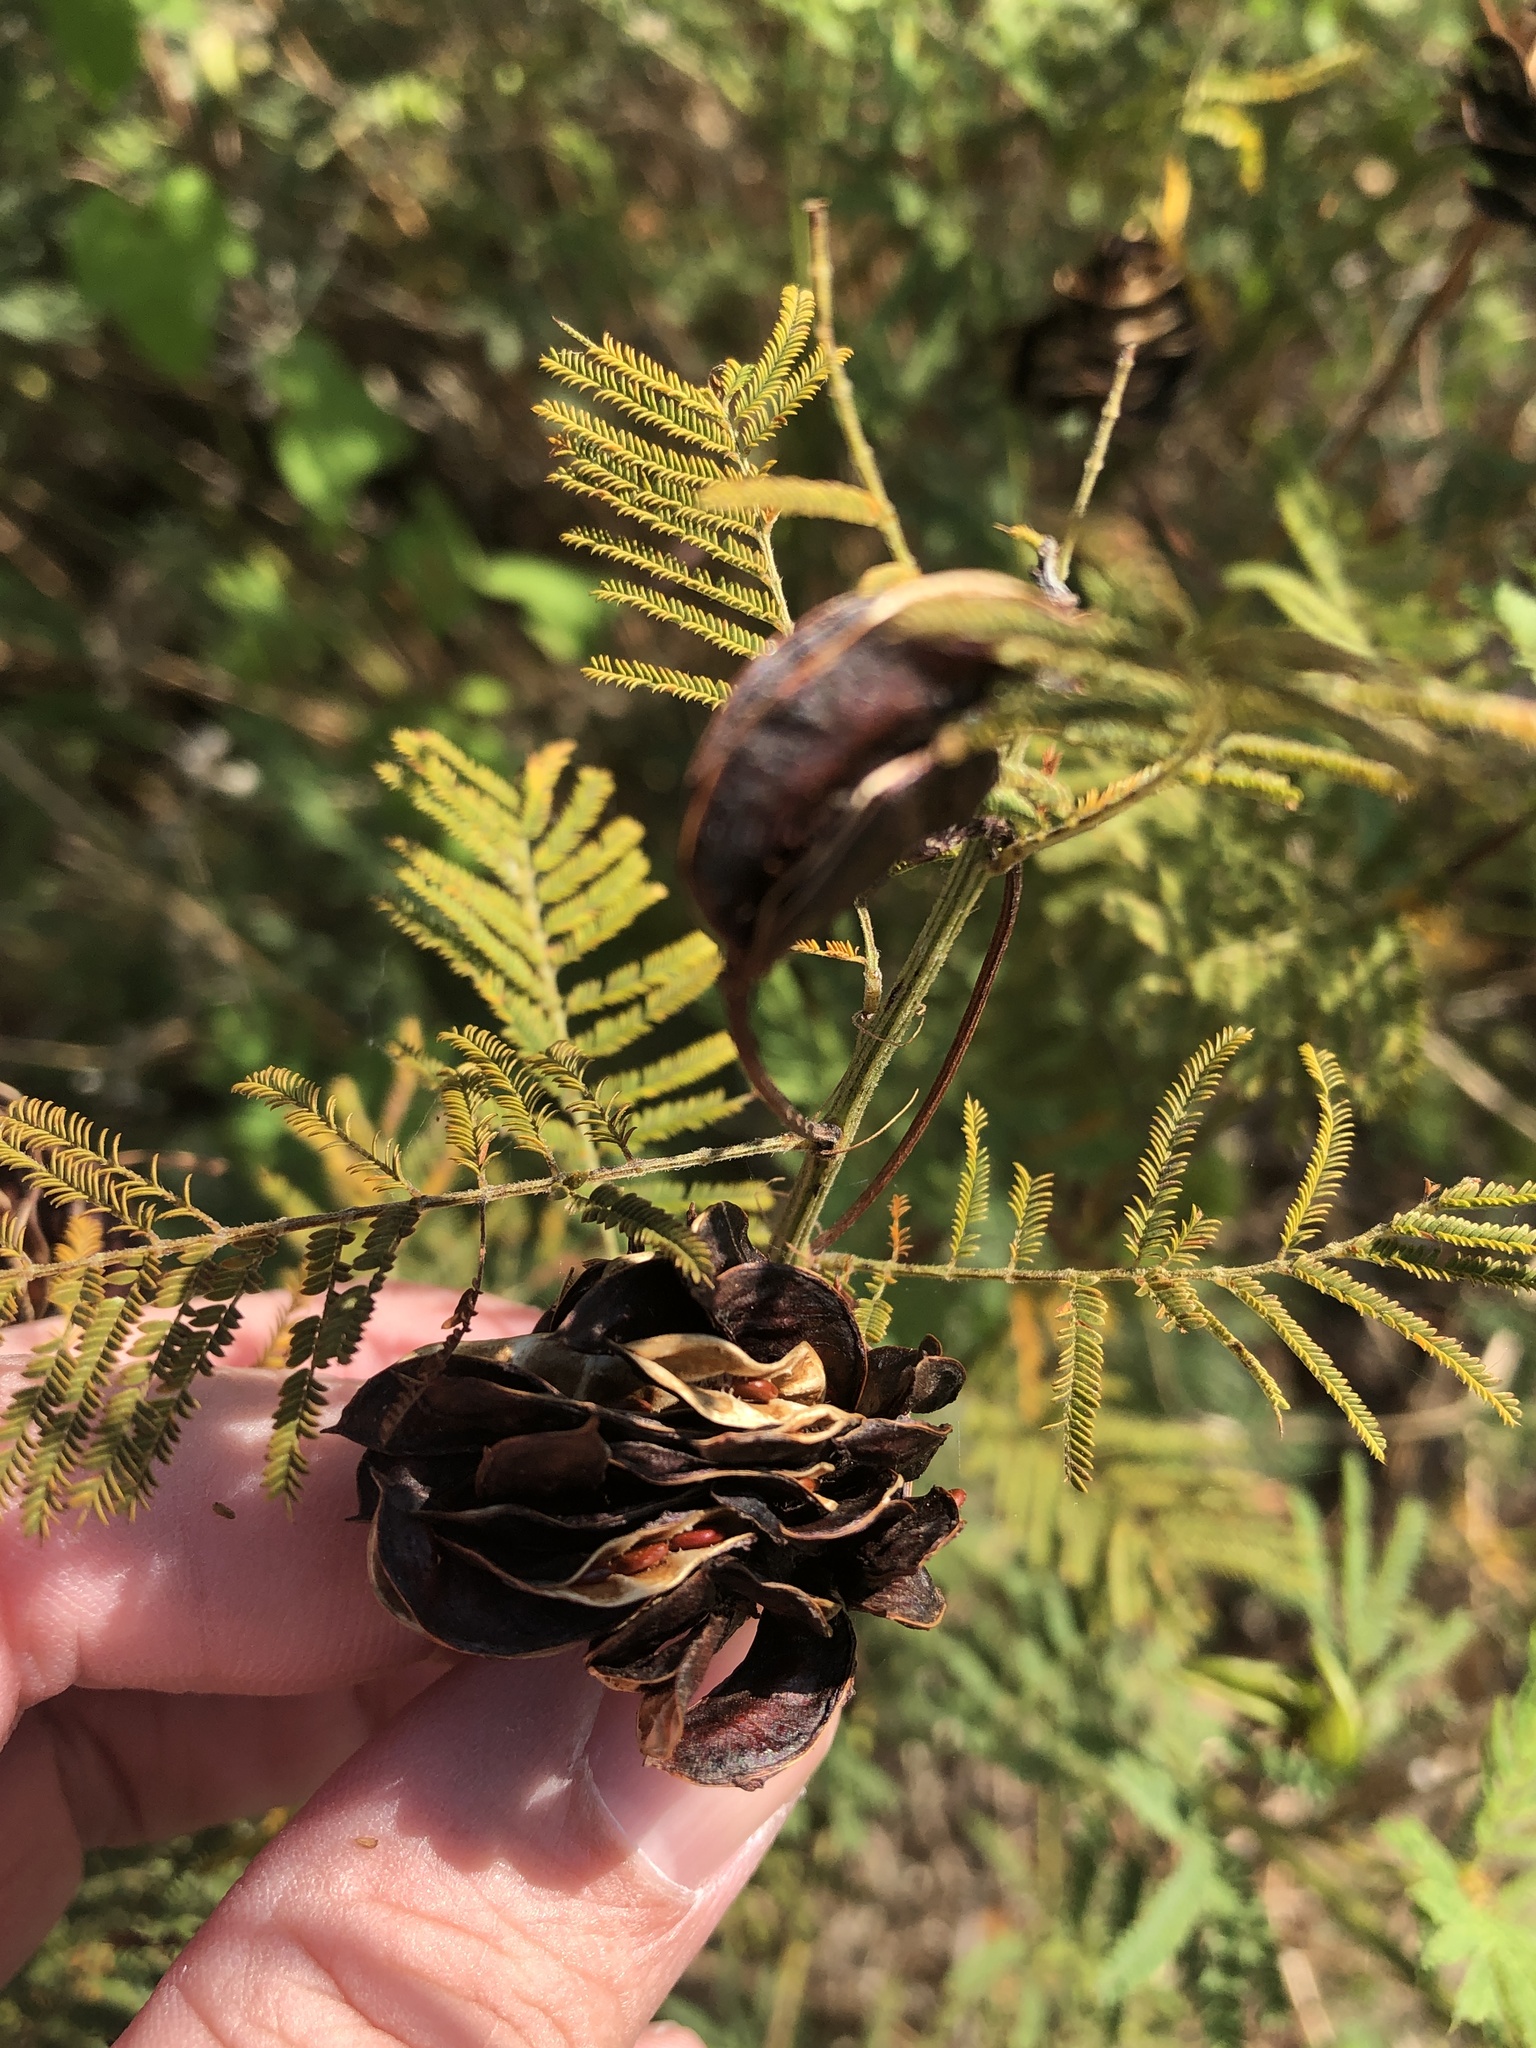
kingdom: Plantae
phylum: Tracheophyta
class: Magnoliopsida
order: Fabales
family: Fabaceae
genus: Desmanthus
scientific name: Desmanthus illinoensis
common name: Illinois bundle-flower
